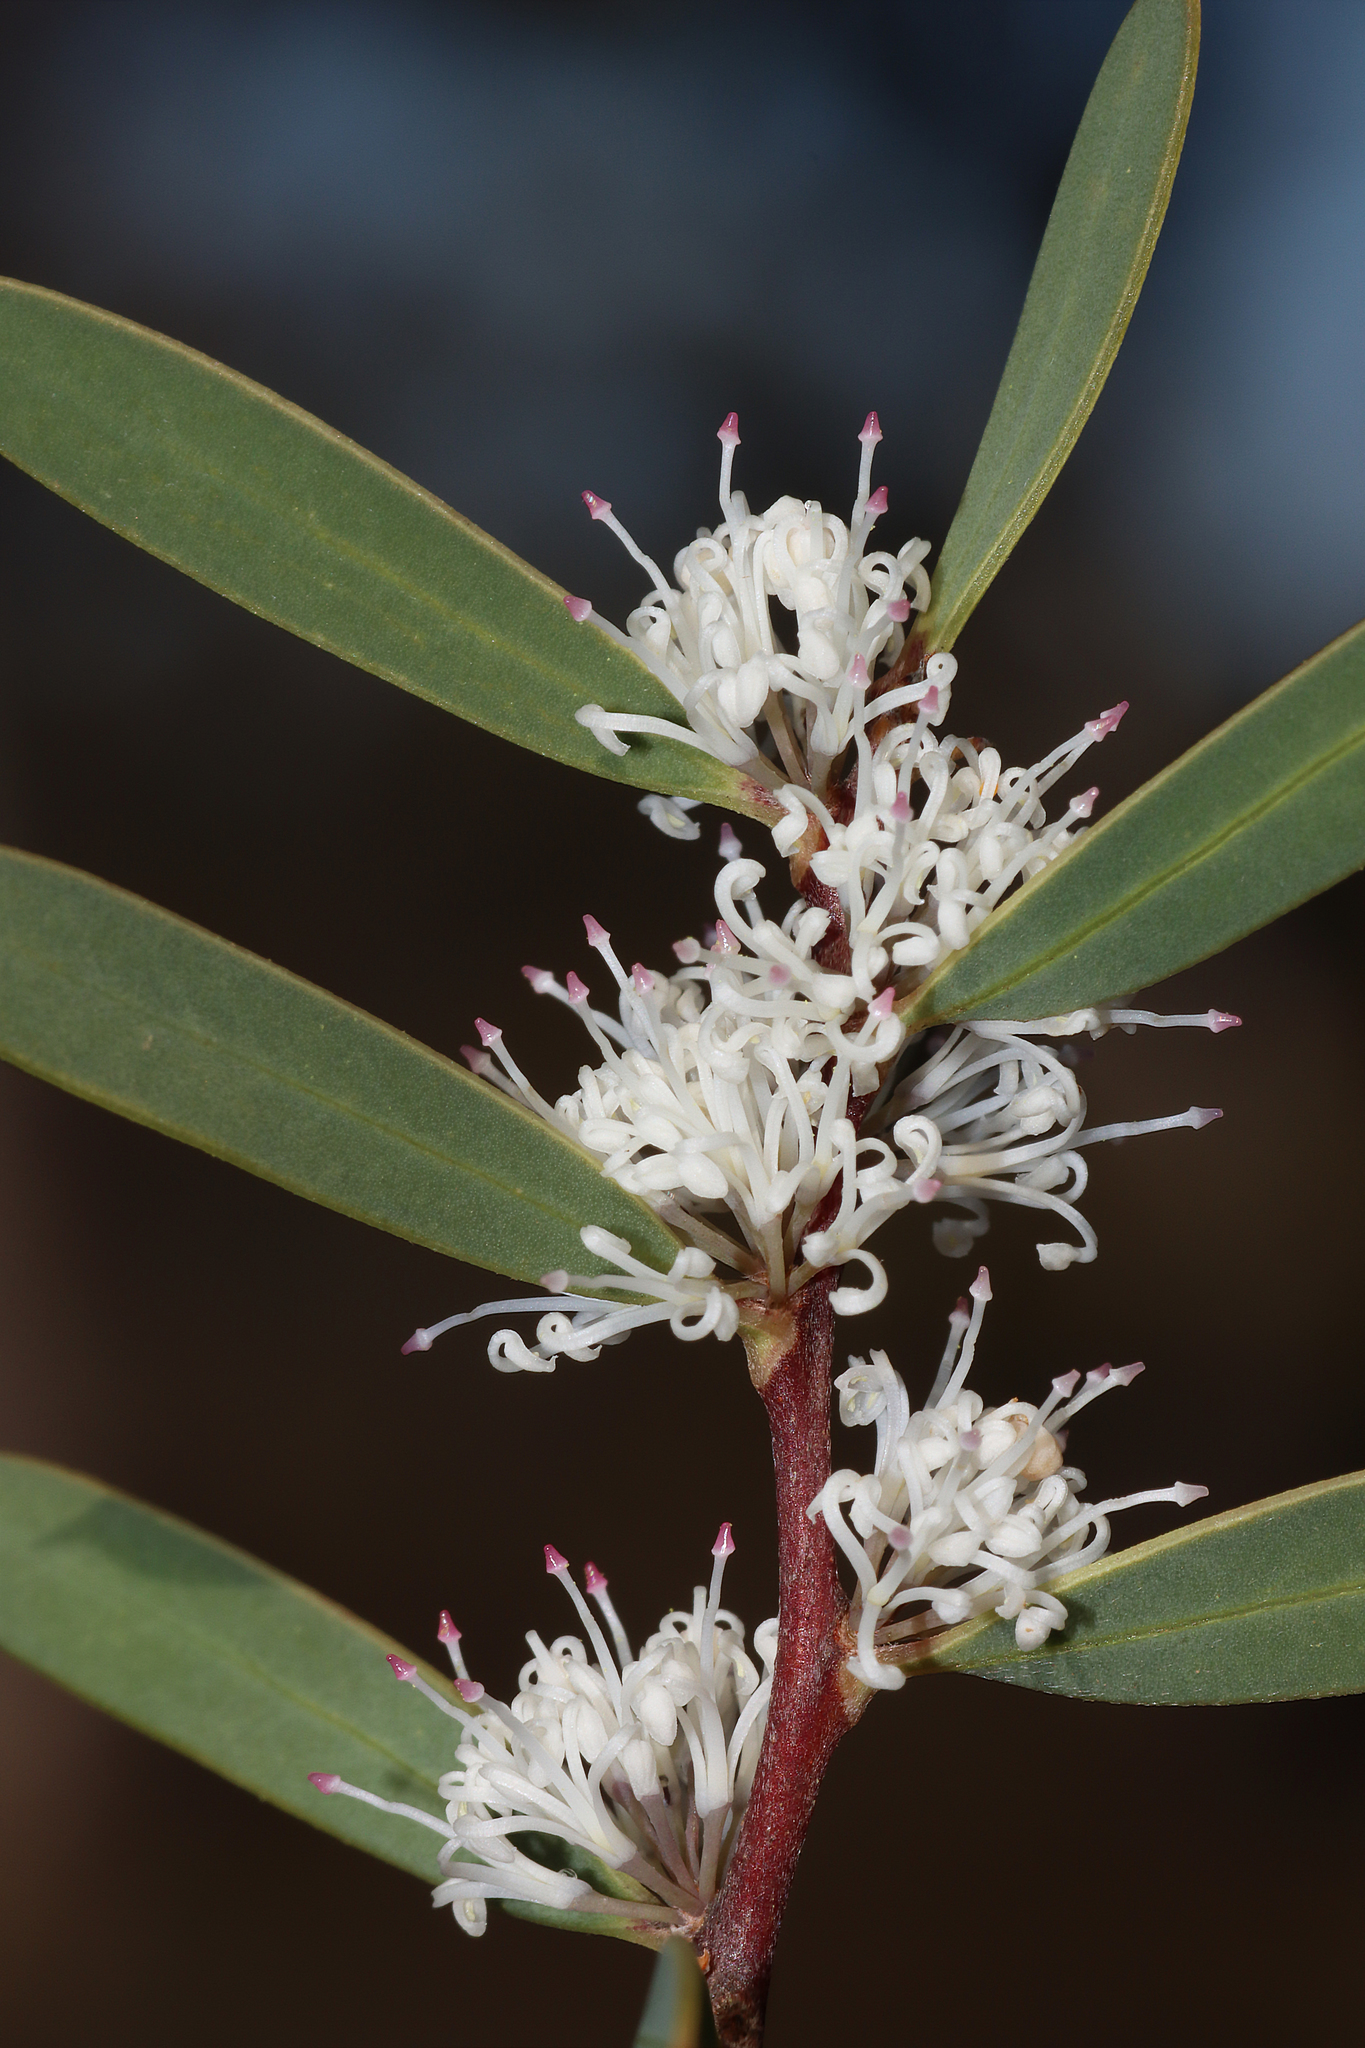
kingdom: Plantae
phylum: Tracheophyta
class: Magnoliopsida
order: Proteales
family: Proteaceae
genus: Hakea
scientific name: Hakea marginata
